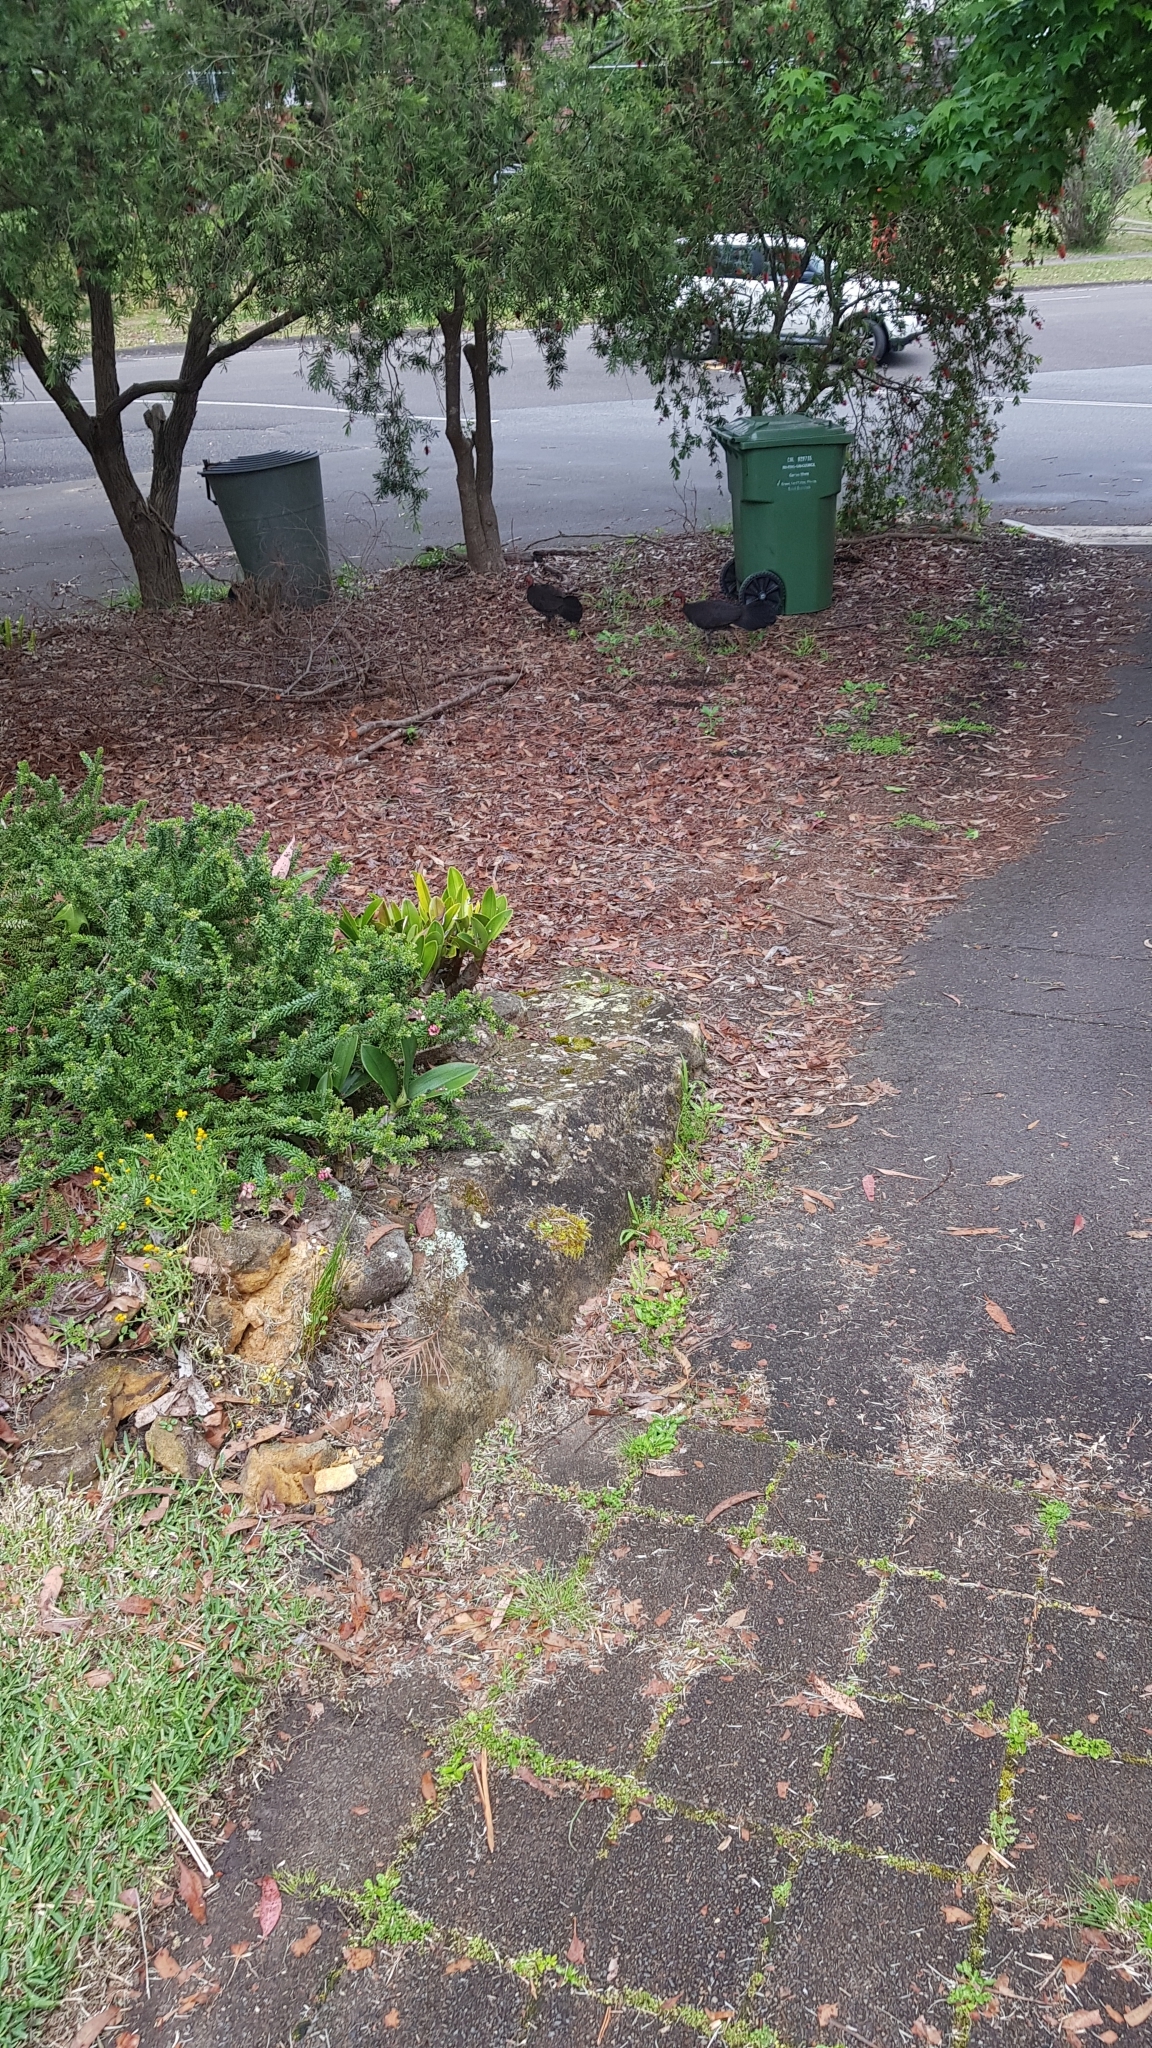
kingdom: Animalia
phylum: Chordata
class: Aves
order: Galliformes
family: Megapodiidae
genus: Alectura
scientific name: Alectura lathami
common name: Australian brushturkey
